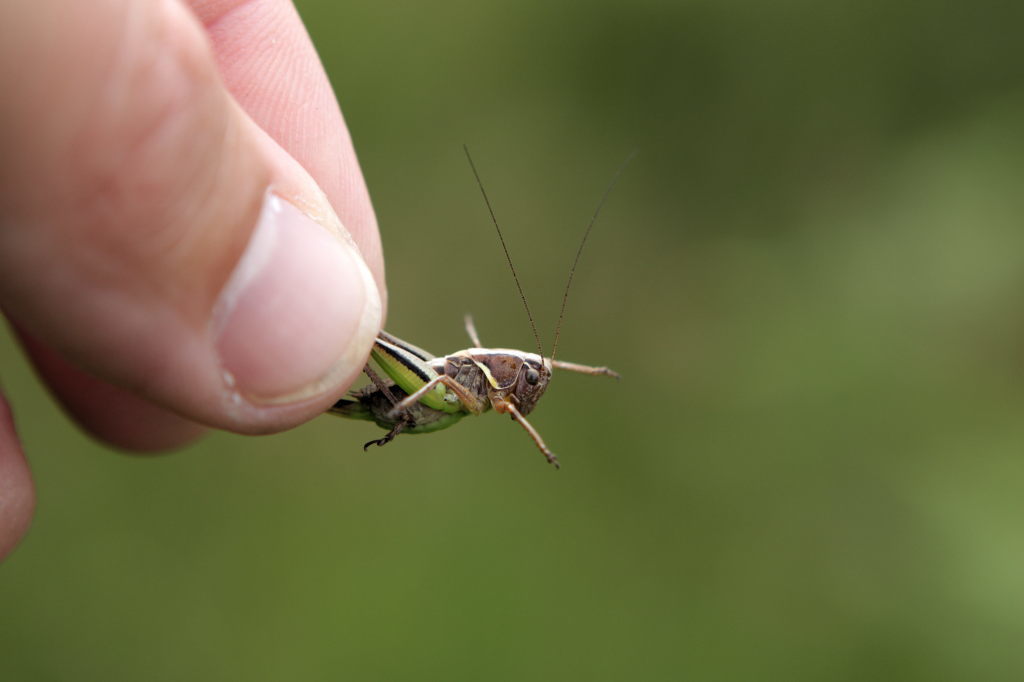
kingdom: Animalia
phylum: Arthropoda
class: Insecta
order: Orthoptera
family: Tettigoniidae
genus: Metrioptera
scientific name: Metrioptera brachyptera
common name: Bog bush-cricket
